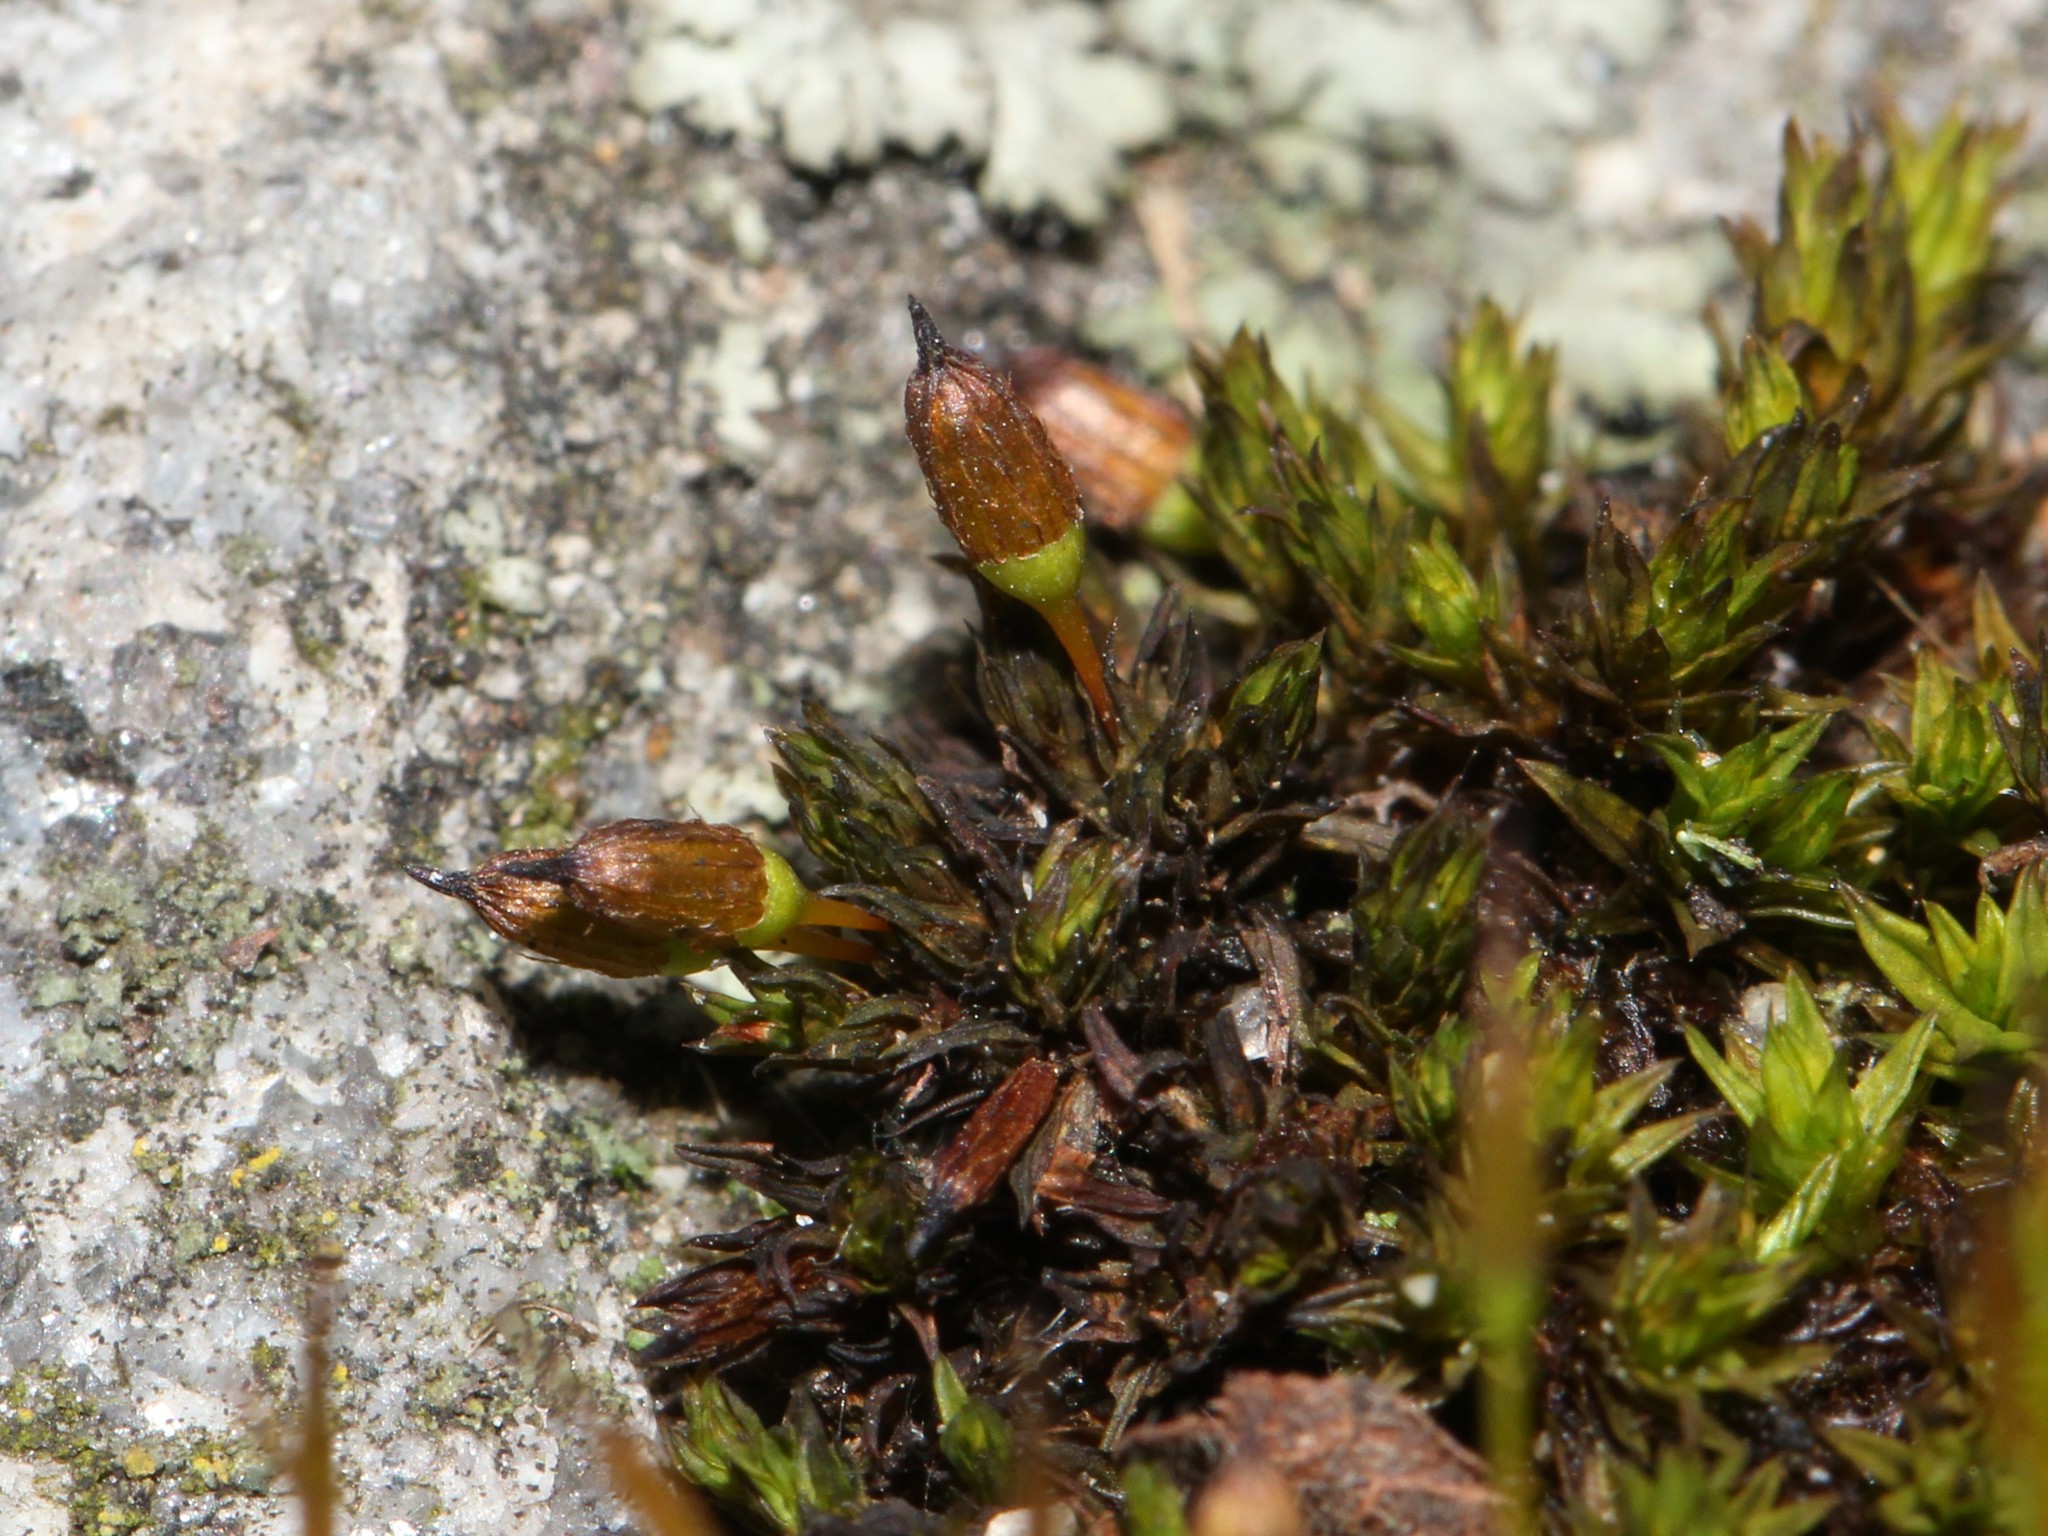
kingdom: Plantae
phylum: Bryophyta
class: Bryopsida
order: Orthotrichales
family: Orthotrichaceae
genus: Orthotrichum
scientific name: Orthotrichum anomalum
